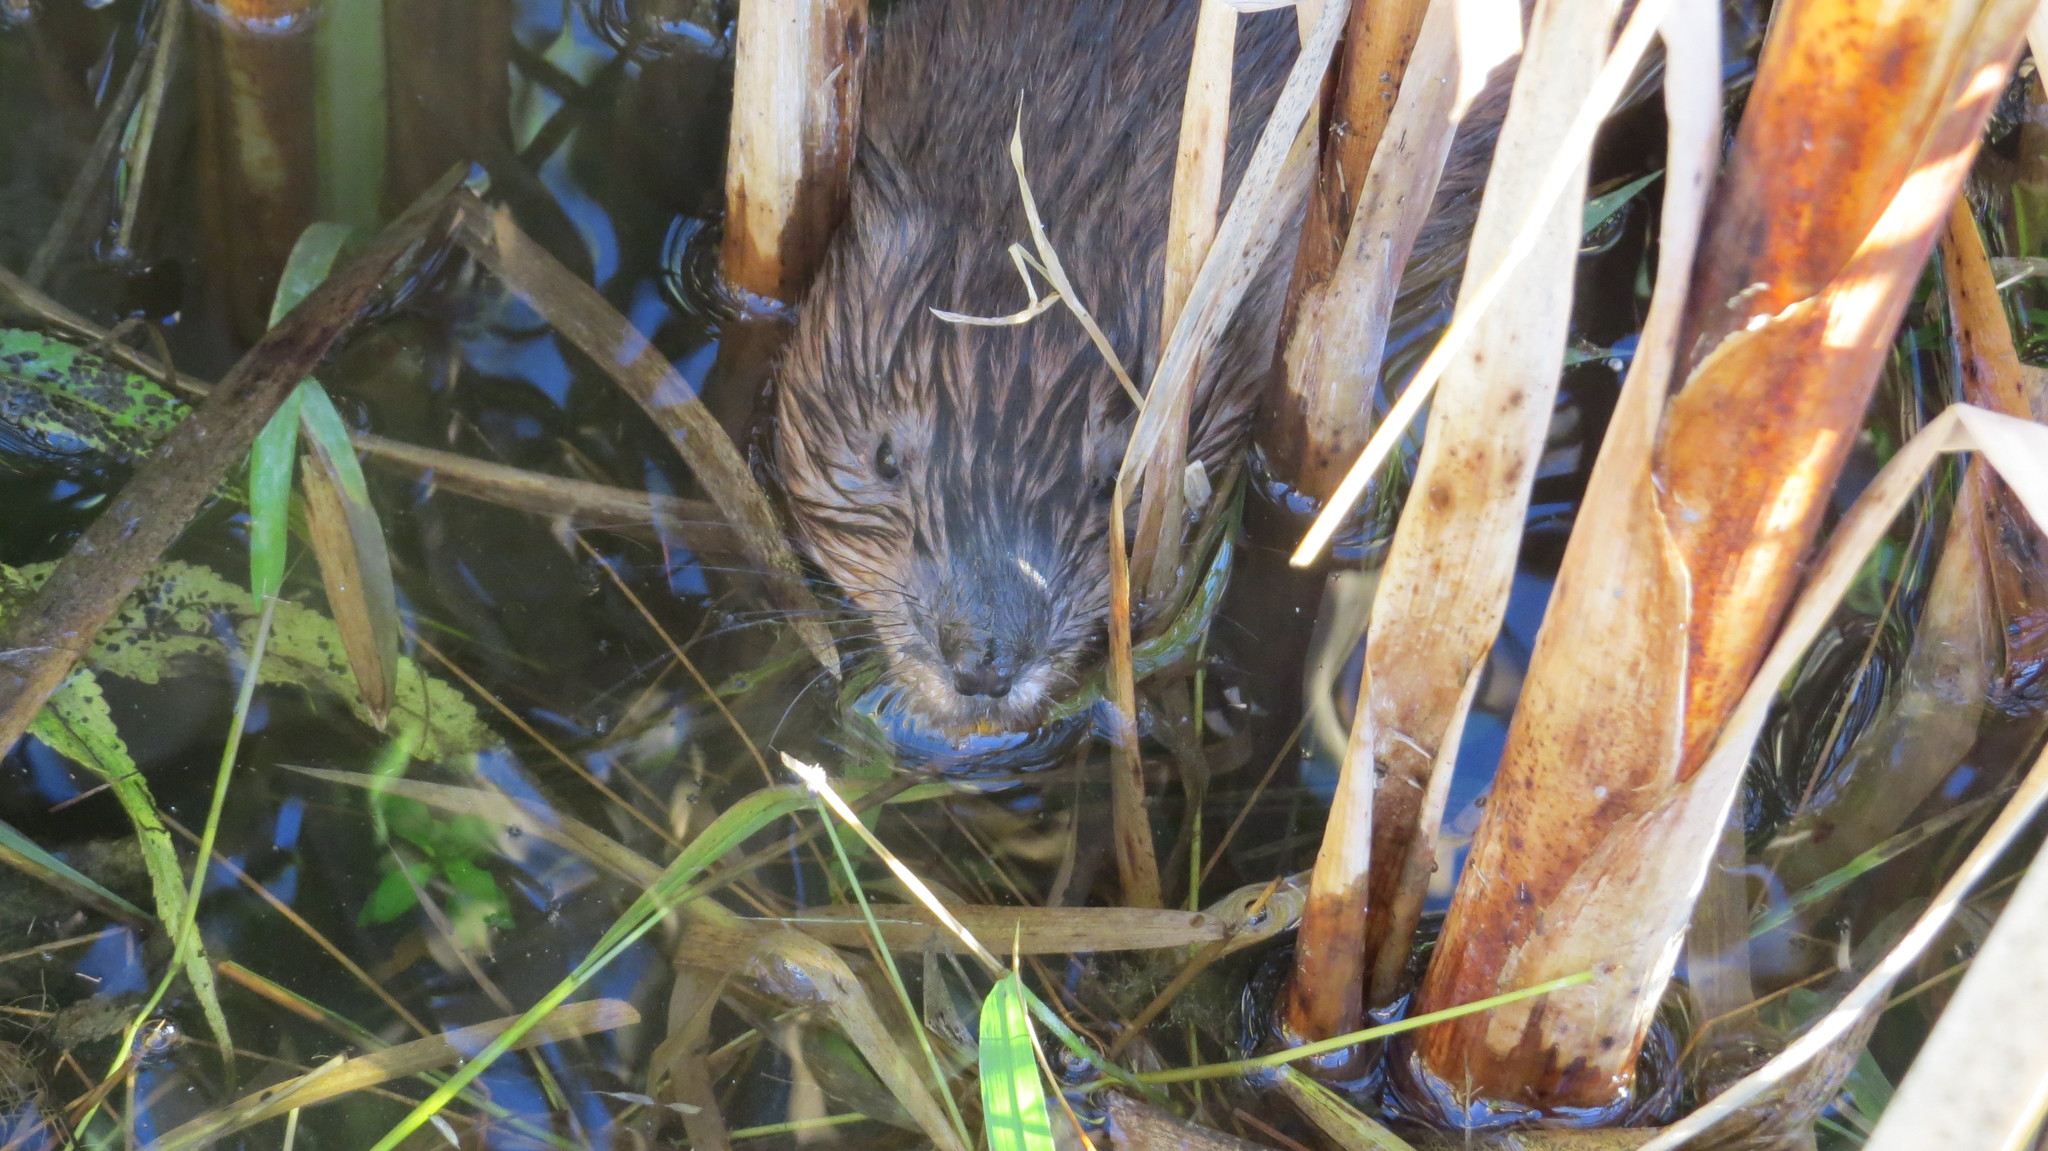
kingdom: Animalia
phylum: Chordata
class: Mammalia
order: Rodentia
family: Cricetidae
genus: Ondatra
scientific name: Ondatra zibethicus
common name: Muskrat
